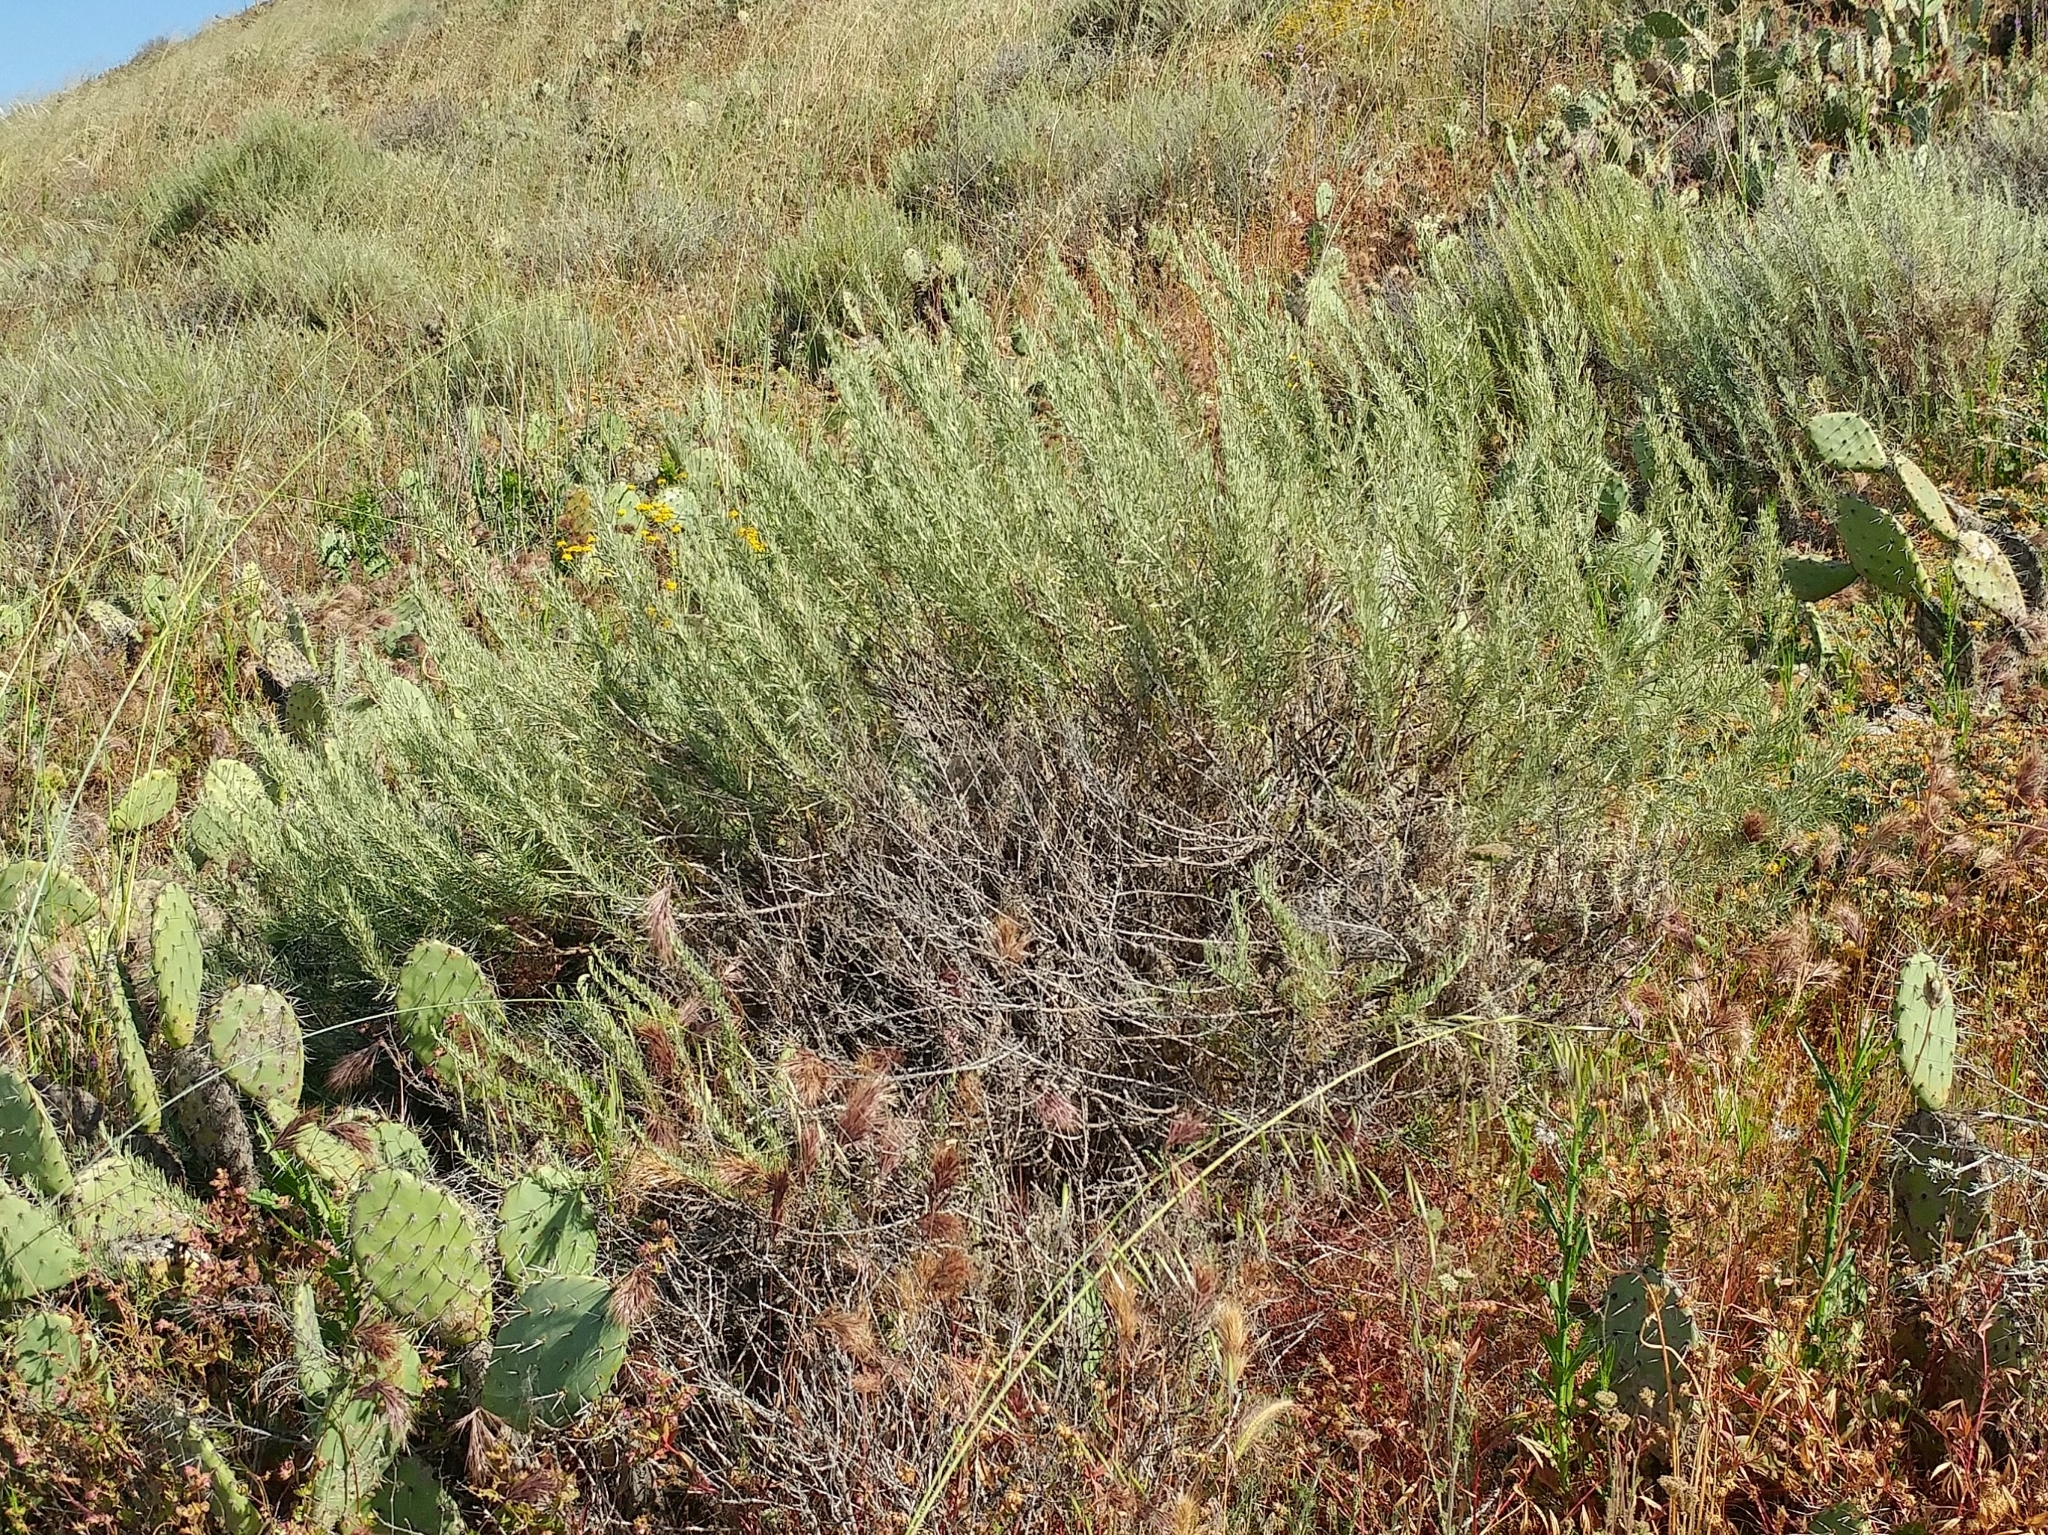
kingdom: Plantae
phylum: Tracheophyta
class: Magnoliopsida
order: Asterales
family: Asteraceae
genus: Artemisia
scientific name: Artemisia californica
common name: California sagebrush
